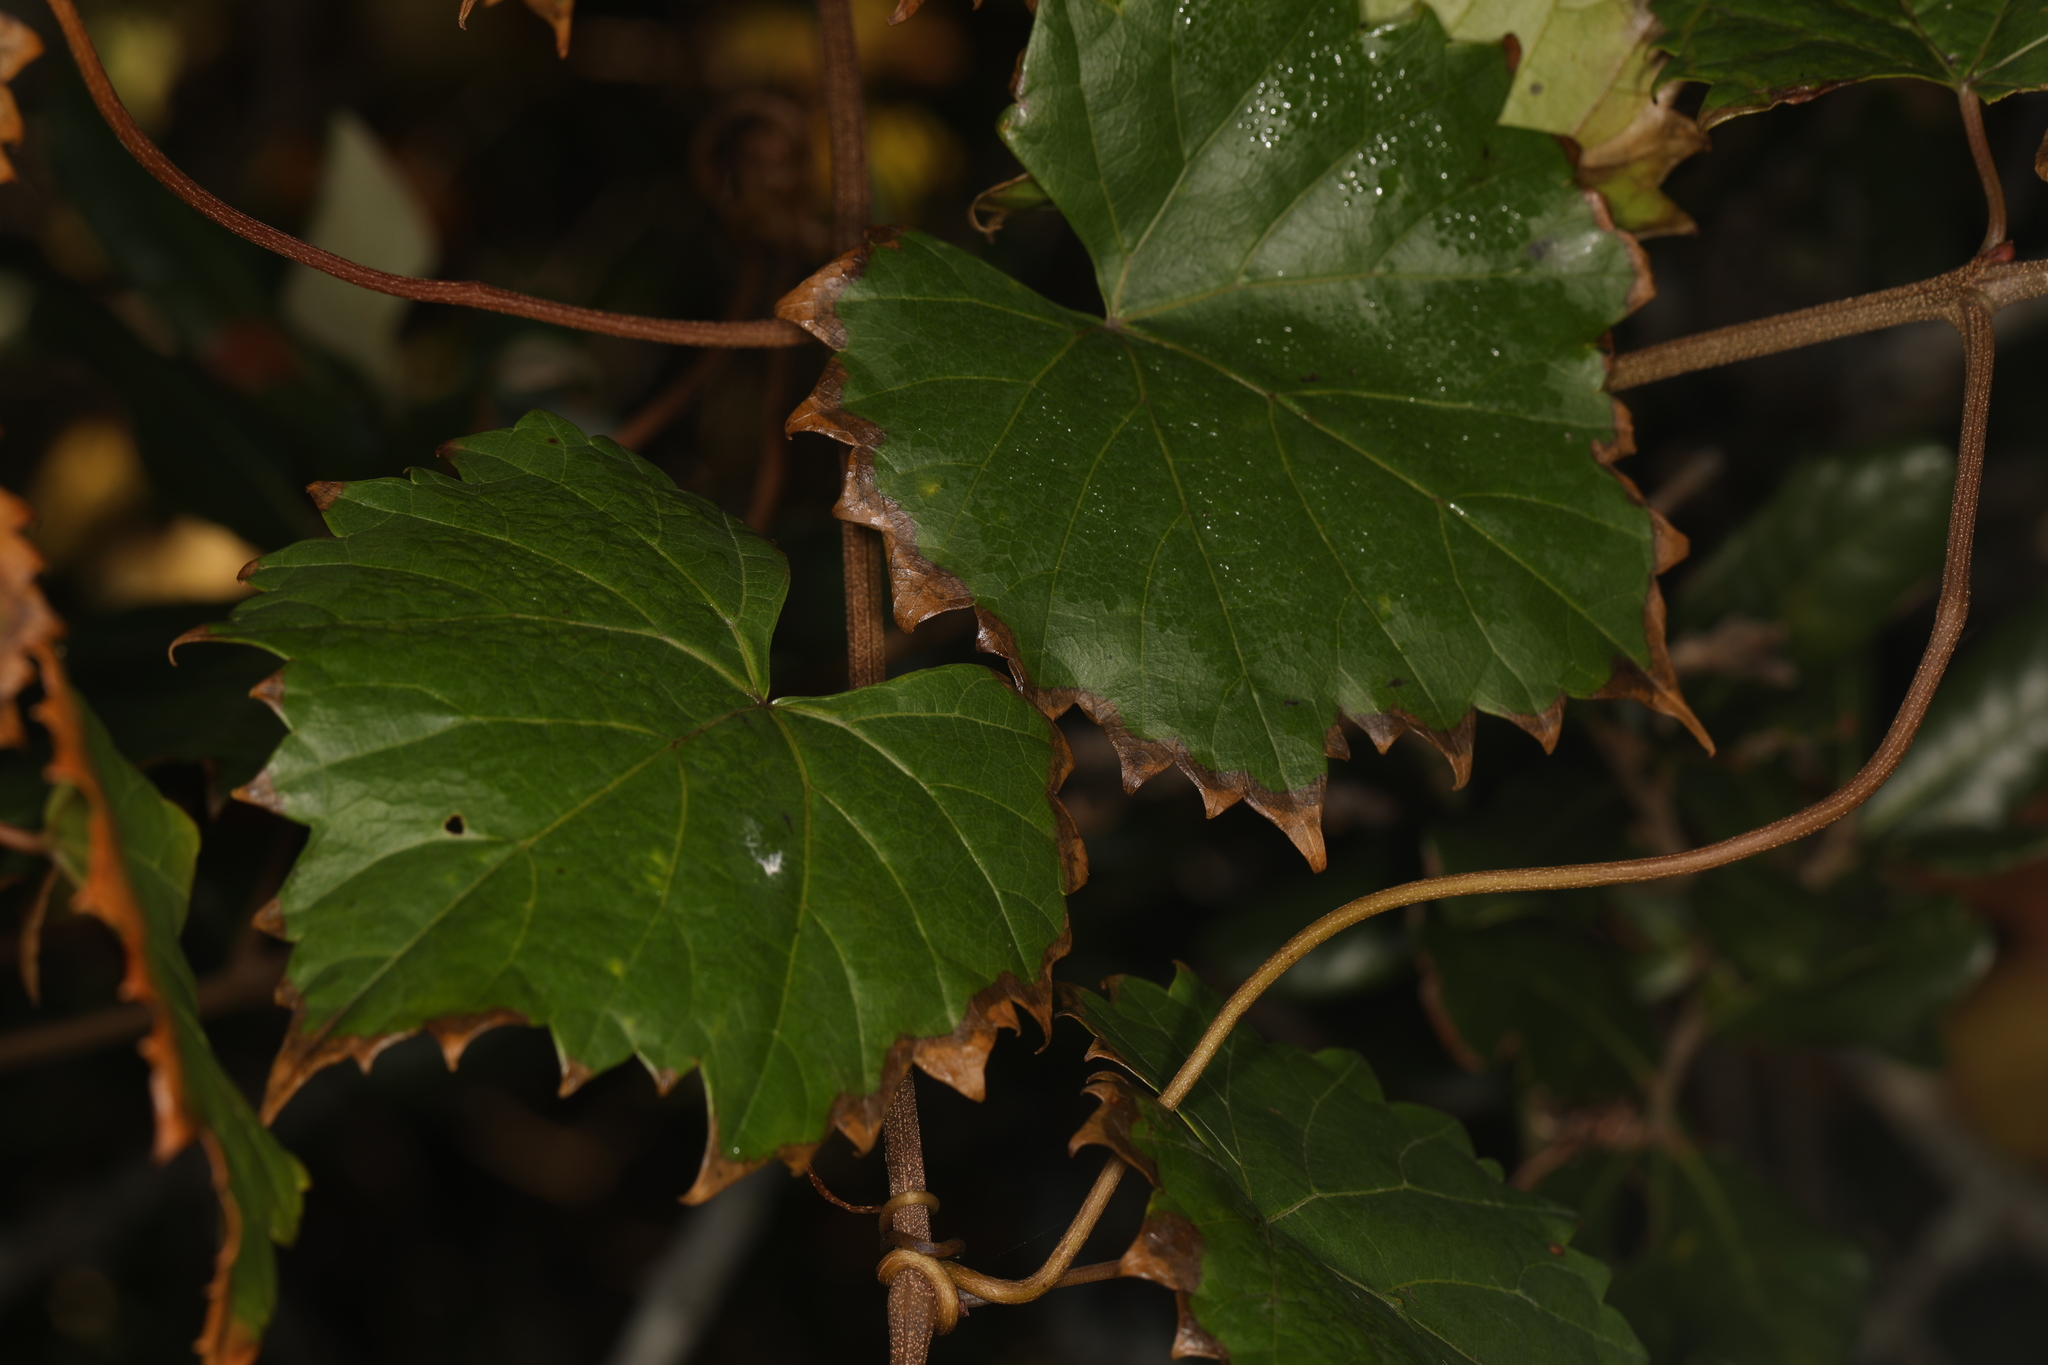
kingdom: Plantae
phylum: Tracheophyta
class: Magnoliopsida
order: Vitales
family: Vitaceae
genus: Vitis
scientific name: Vitis rotundifolia
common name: Muscadine grape
